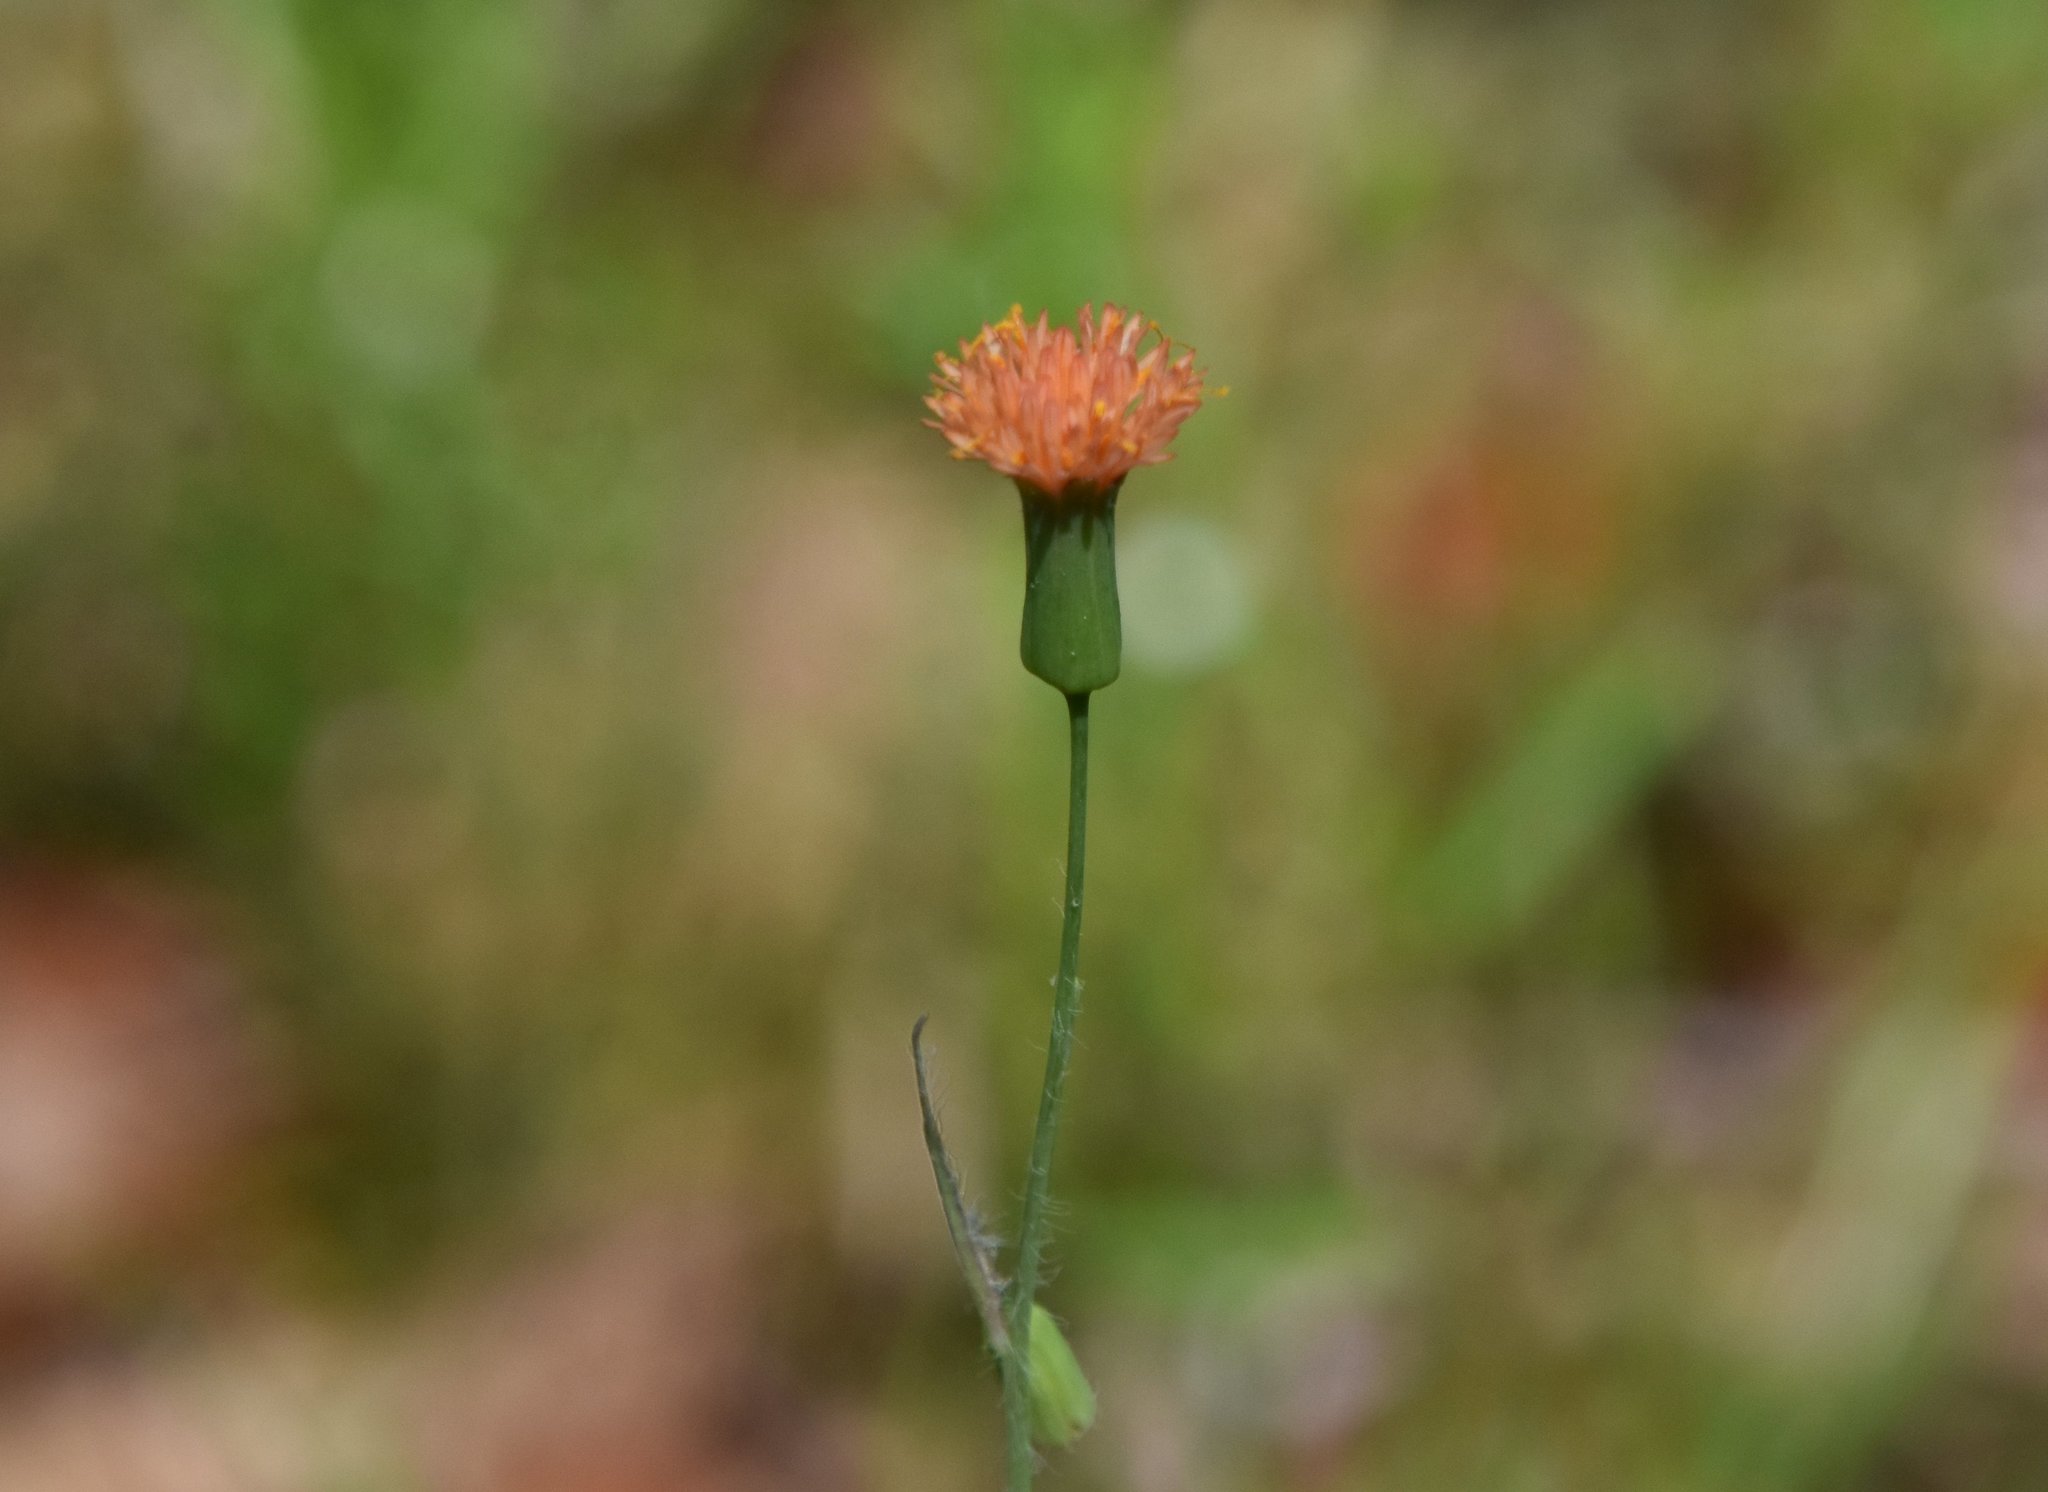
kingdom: Plantae
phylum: Tracheophyta
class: Magnoliopsida
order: Asterales
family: Asteraceae
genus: Emilia
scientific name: Emilia fosbergii
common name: Florida tasselflower
